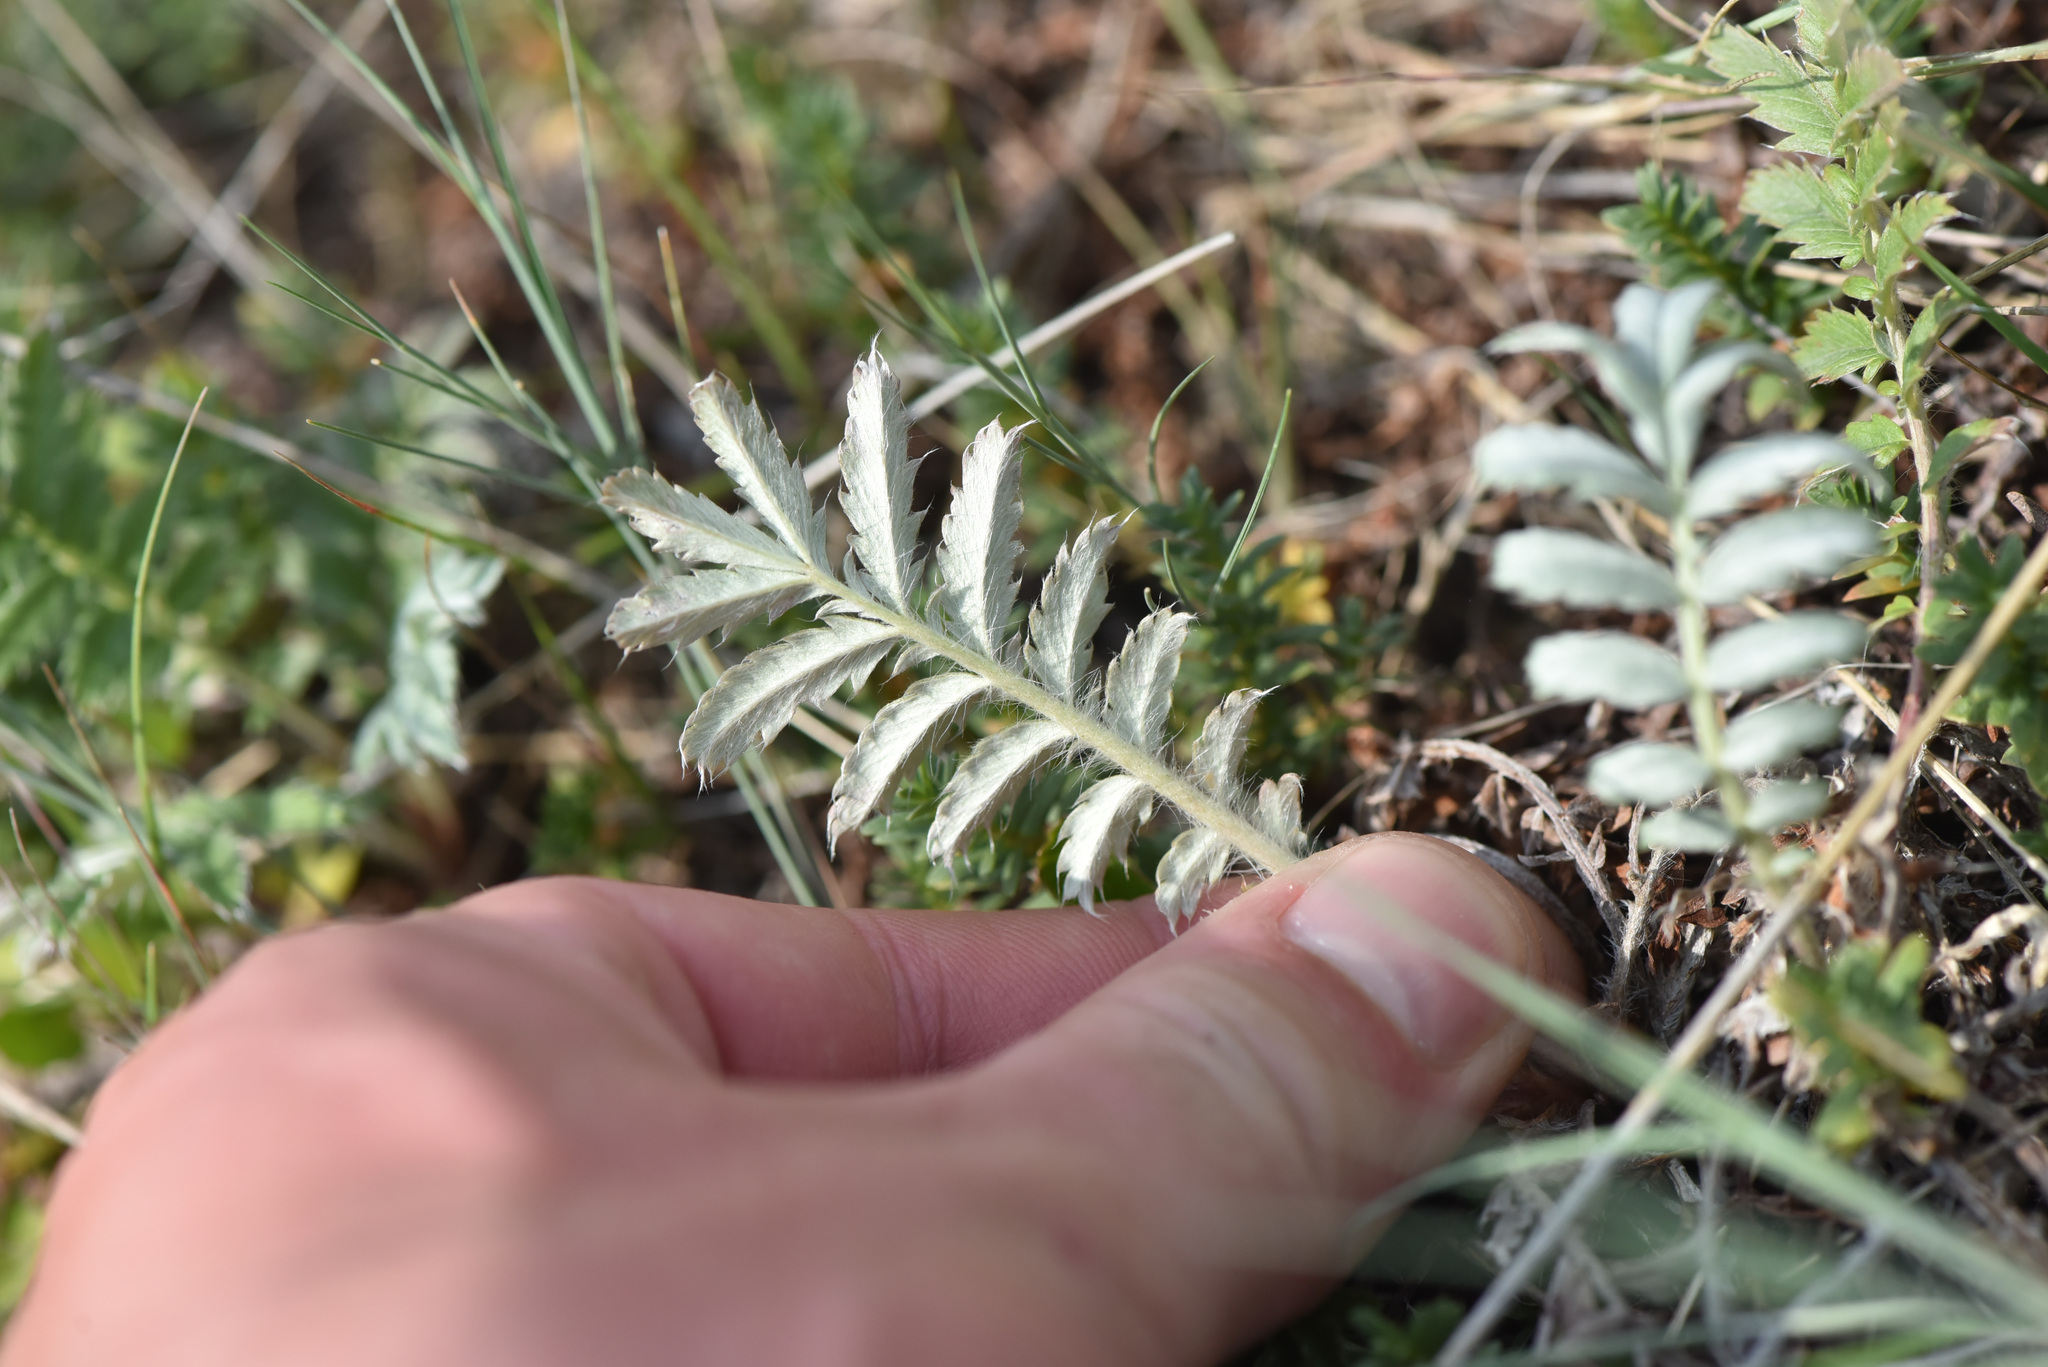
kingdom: Plantae
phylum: Tracheophyta
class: Magnoliopsida
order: Rosales
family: Rosaceae
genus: Argentina
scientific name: Argentina anserina
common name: Common silverweed
